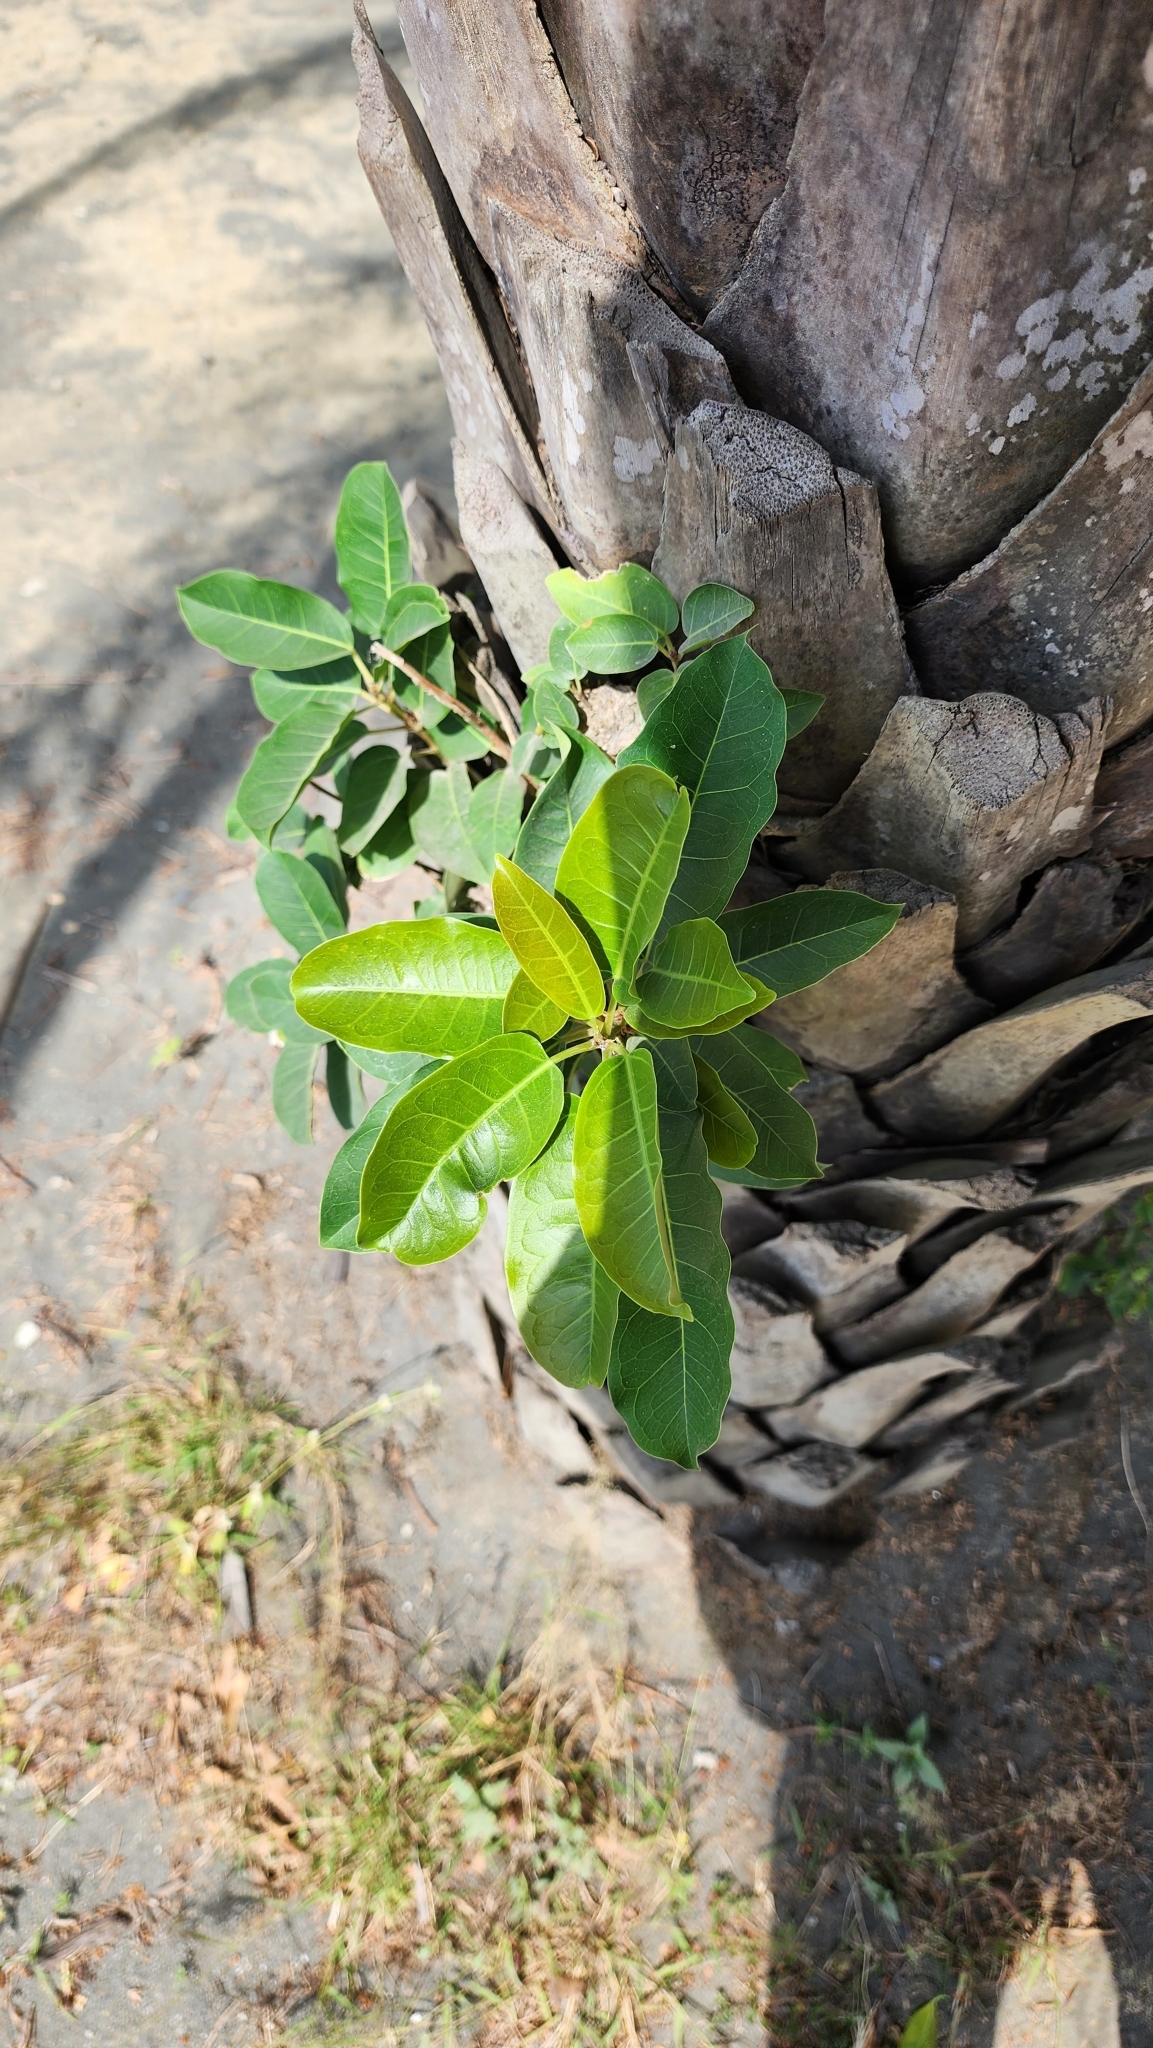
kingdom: Plantae
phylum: Tracheophyta
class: Magnoliopsida
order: Rosales
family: Moraceae
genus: Ficus
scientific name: Ficus subpisocarpa
